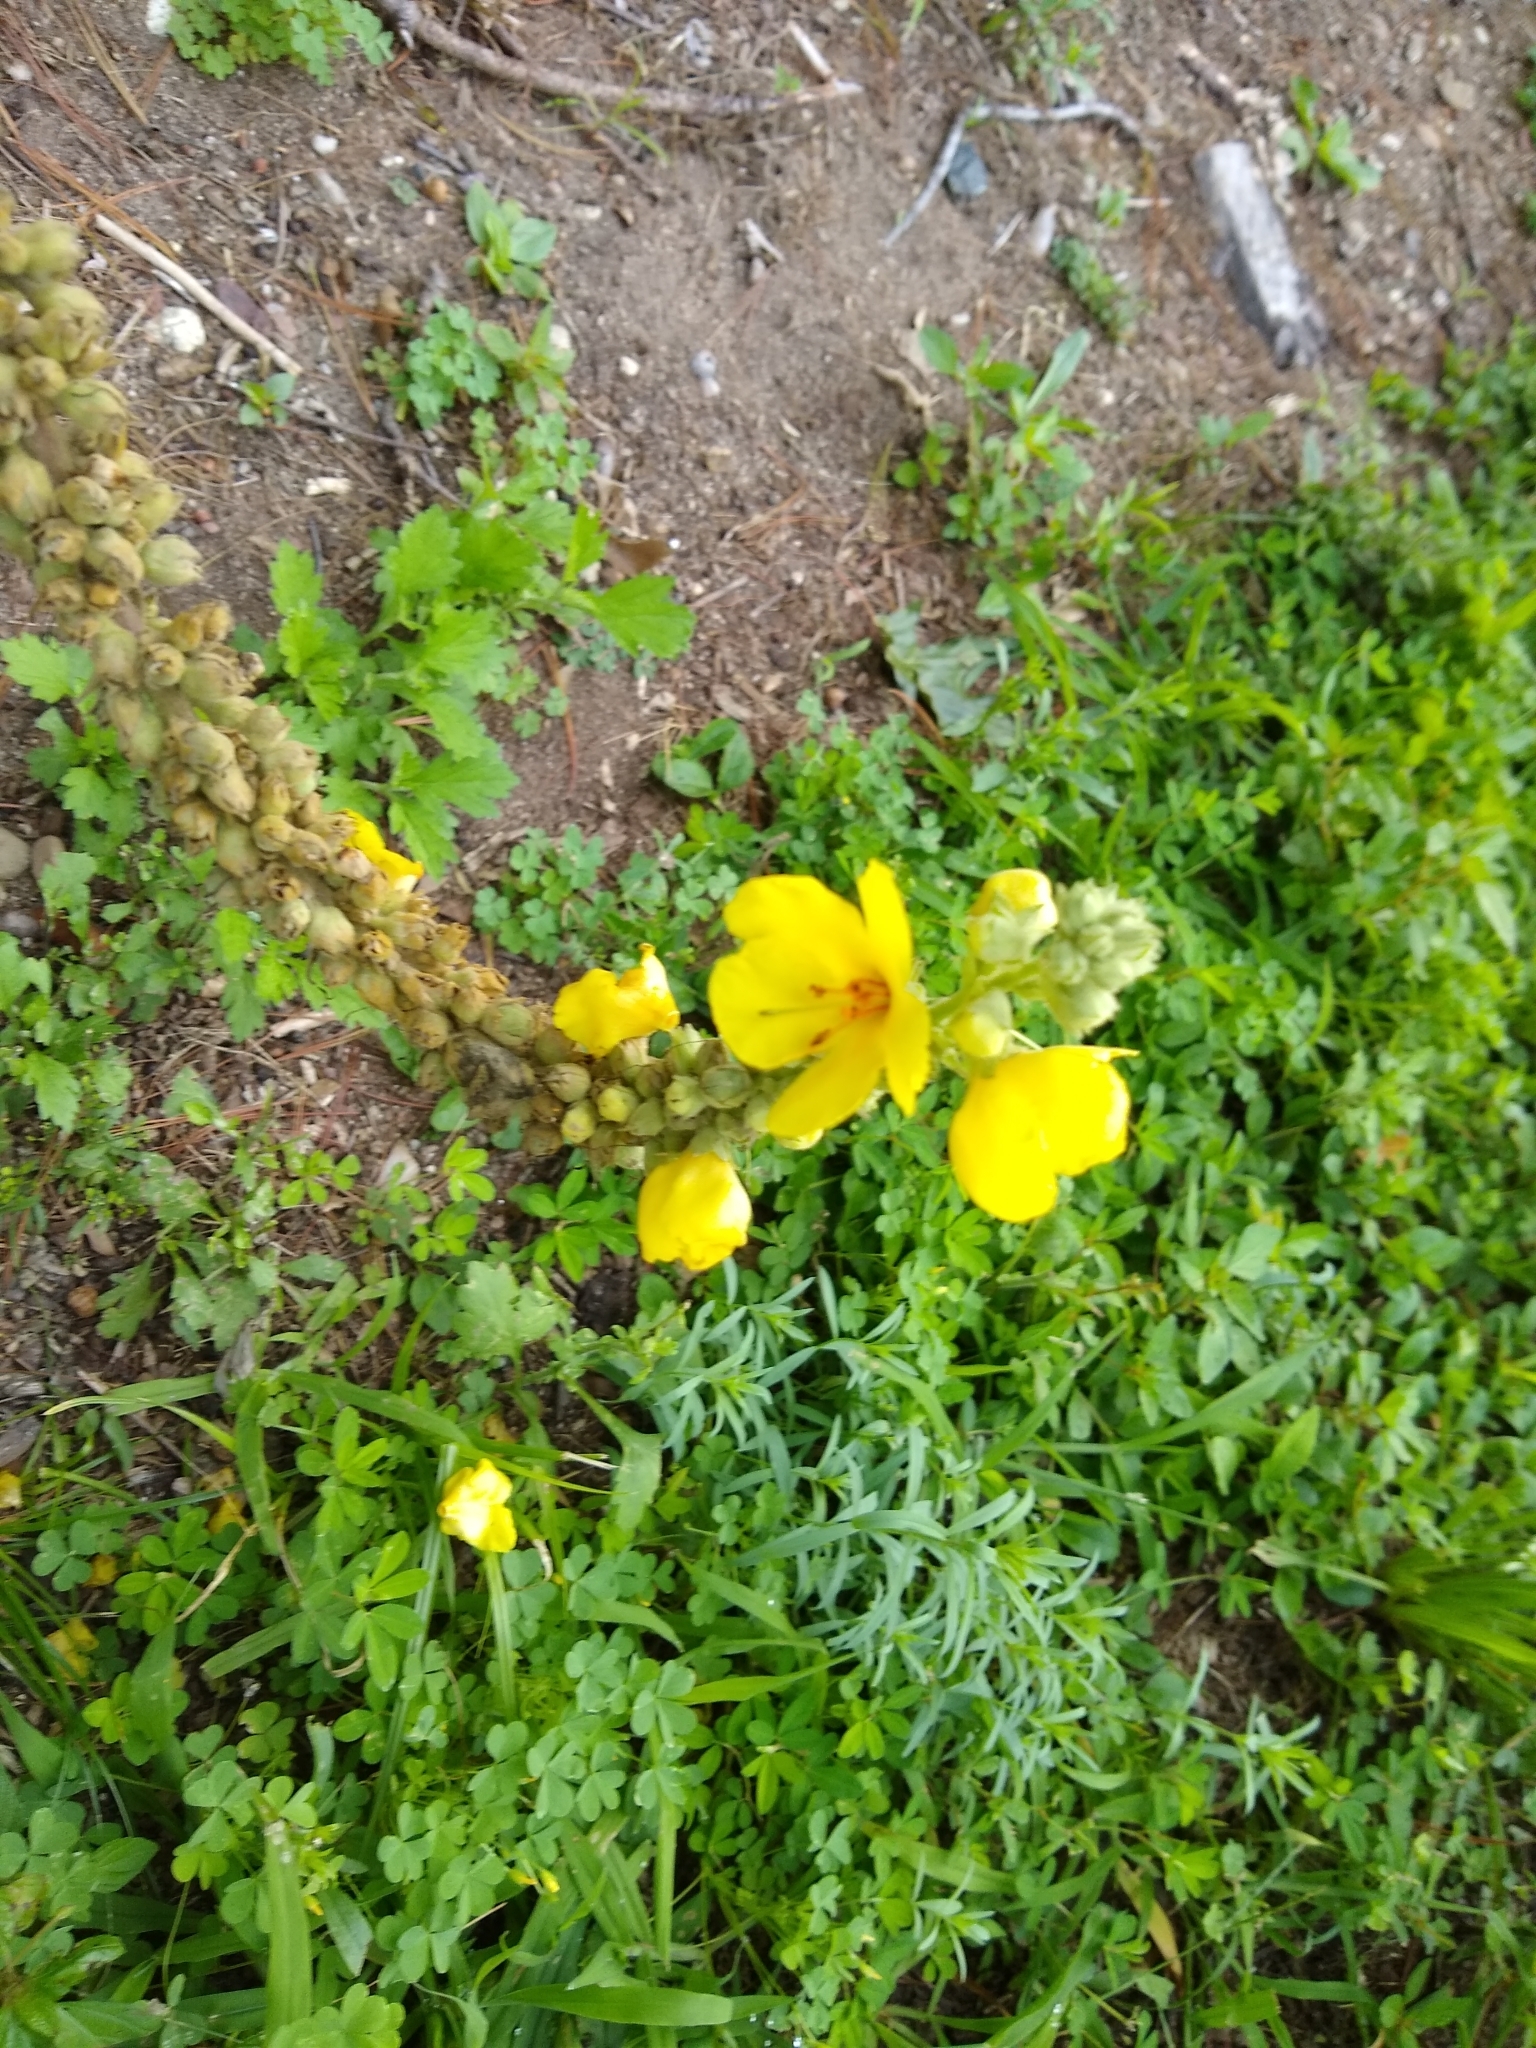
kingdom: Plantae
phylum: Tracheophyta
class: Magnoliopsida
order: Lamiales
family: Scrophulariaceae
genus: Verbascum
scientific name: Verbascum densiflorum
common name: Dense-flowered mullein
